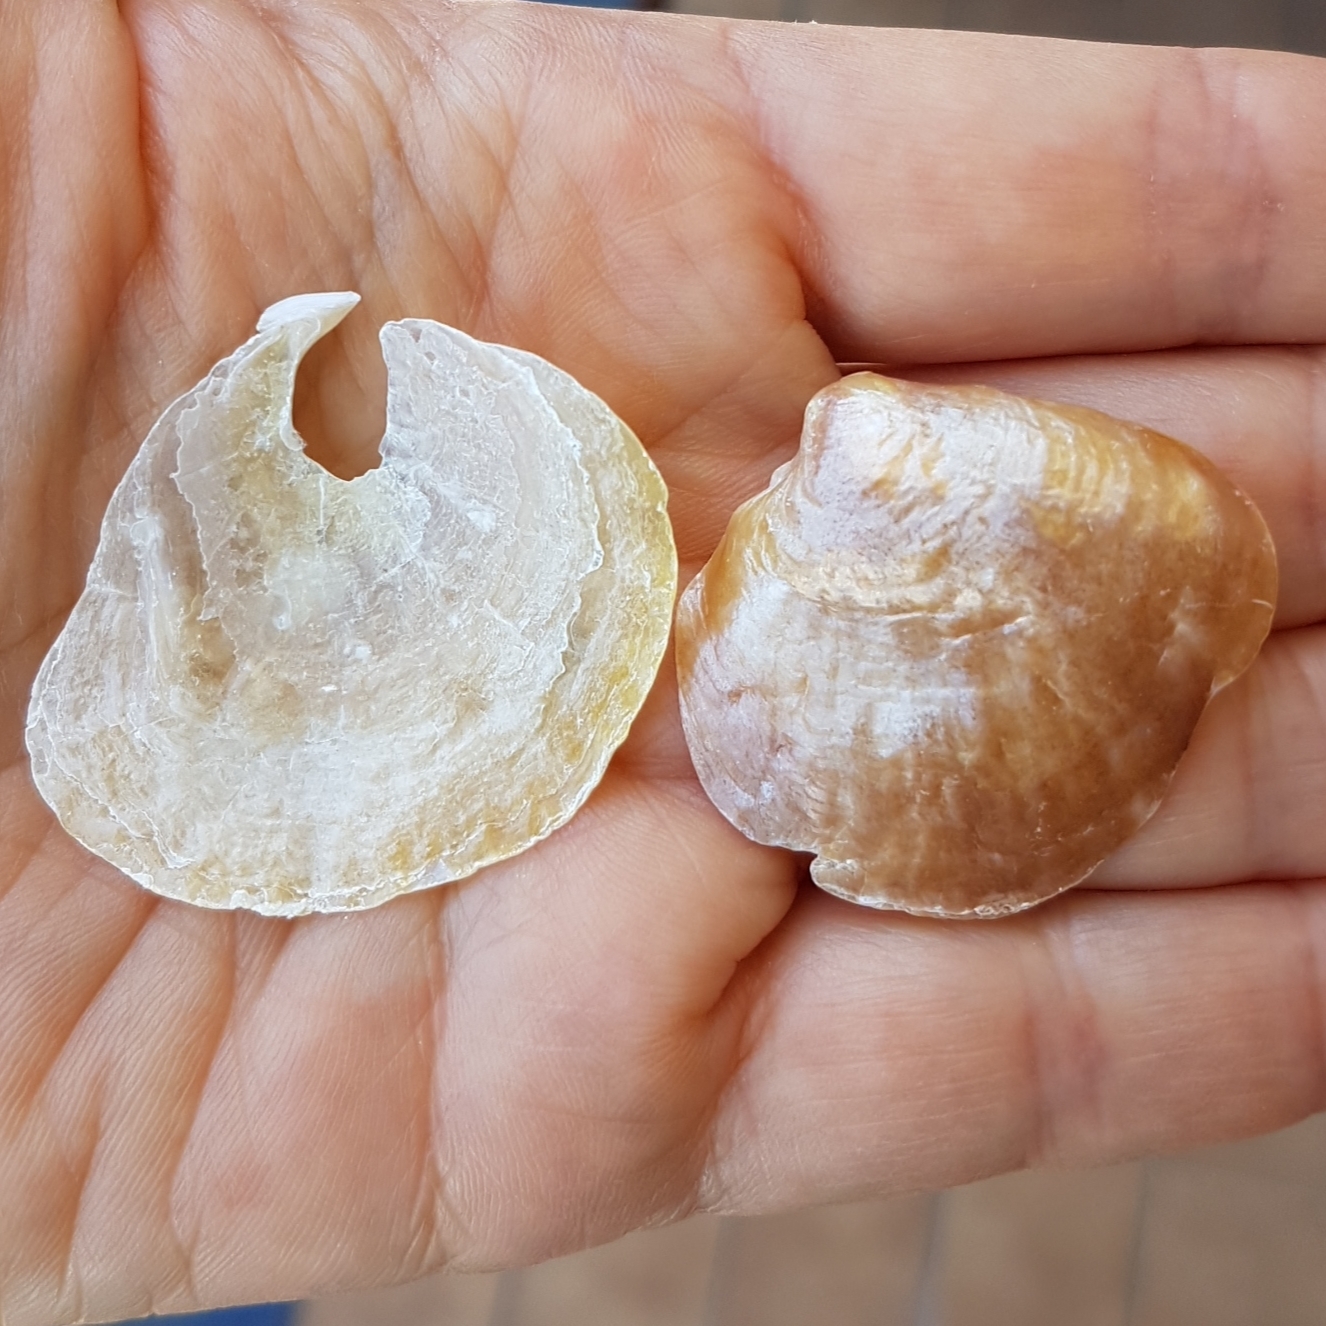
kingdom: Animalia
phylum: Mollusca
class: Bivalvia
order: Pectinida
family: Anomiidae
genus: Anomia
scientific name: Anomia ephippium
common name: Saddle oyster
